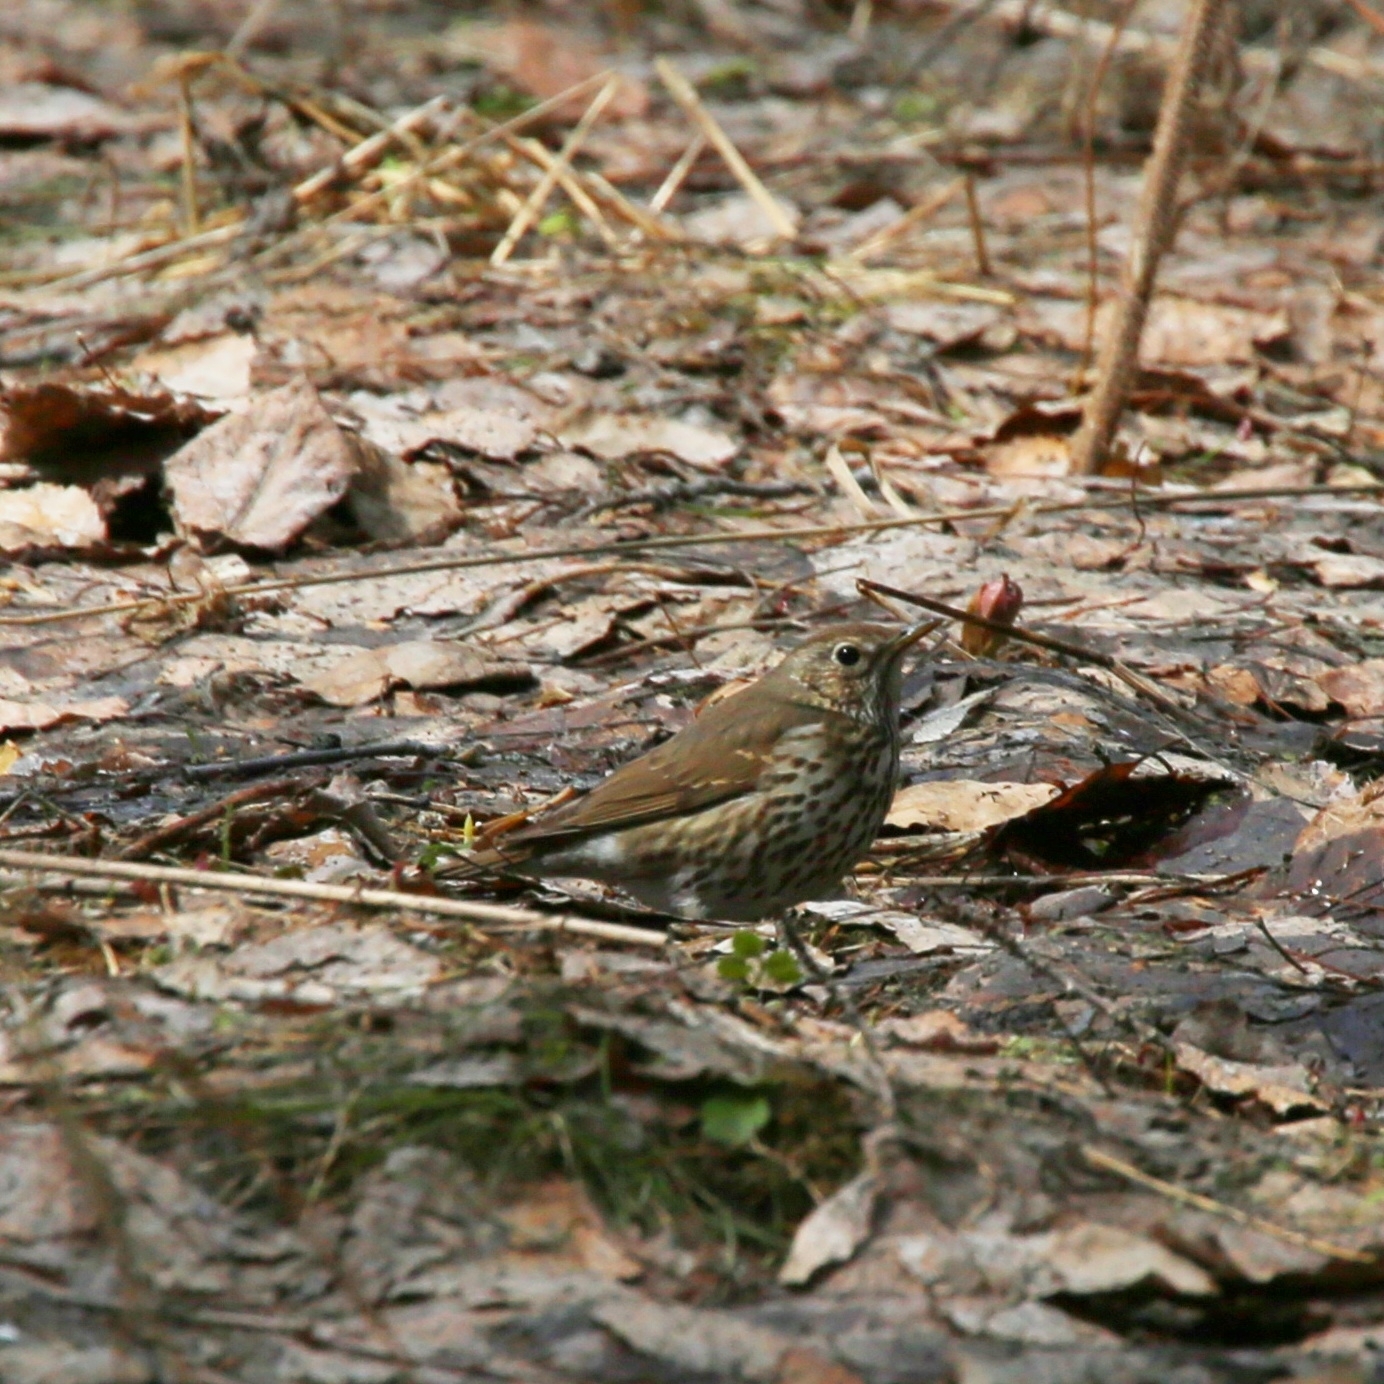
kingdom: Animalia
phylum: Chordata
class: Aves
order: Passeriformes
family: Turdidae
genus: Turdus
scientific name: Turdus philomelos
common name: Song thrush
